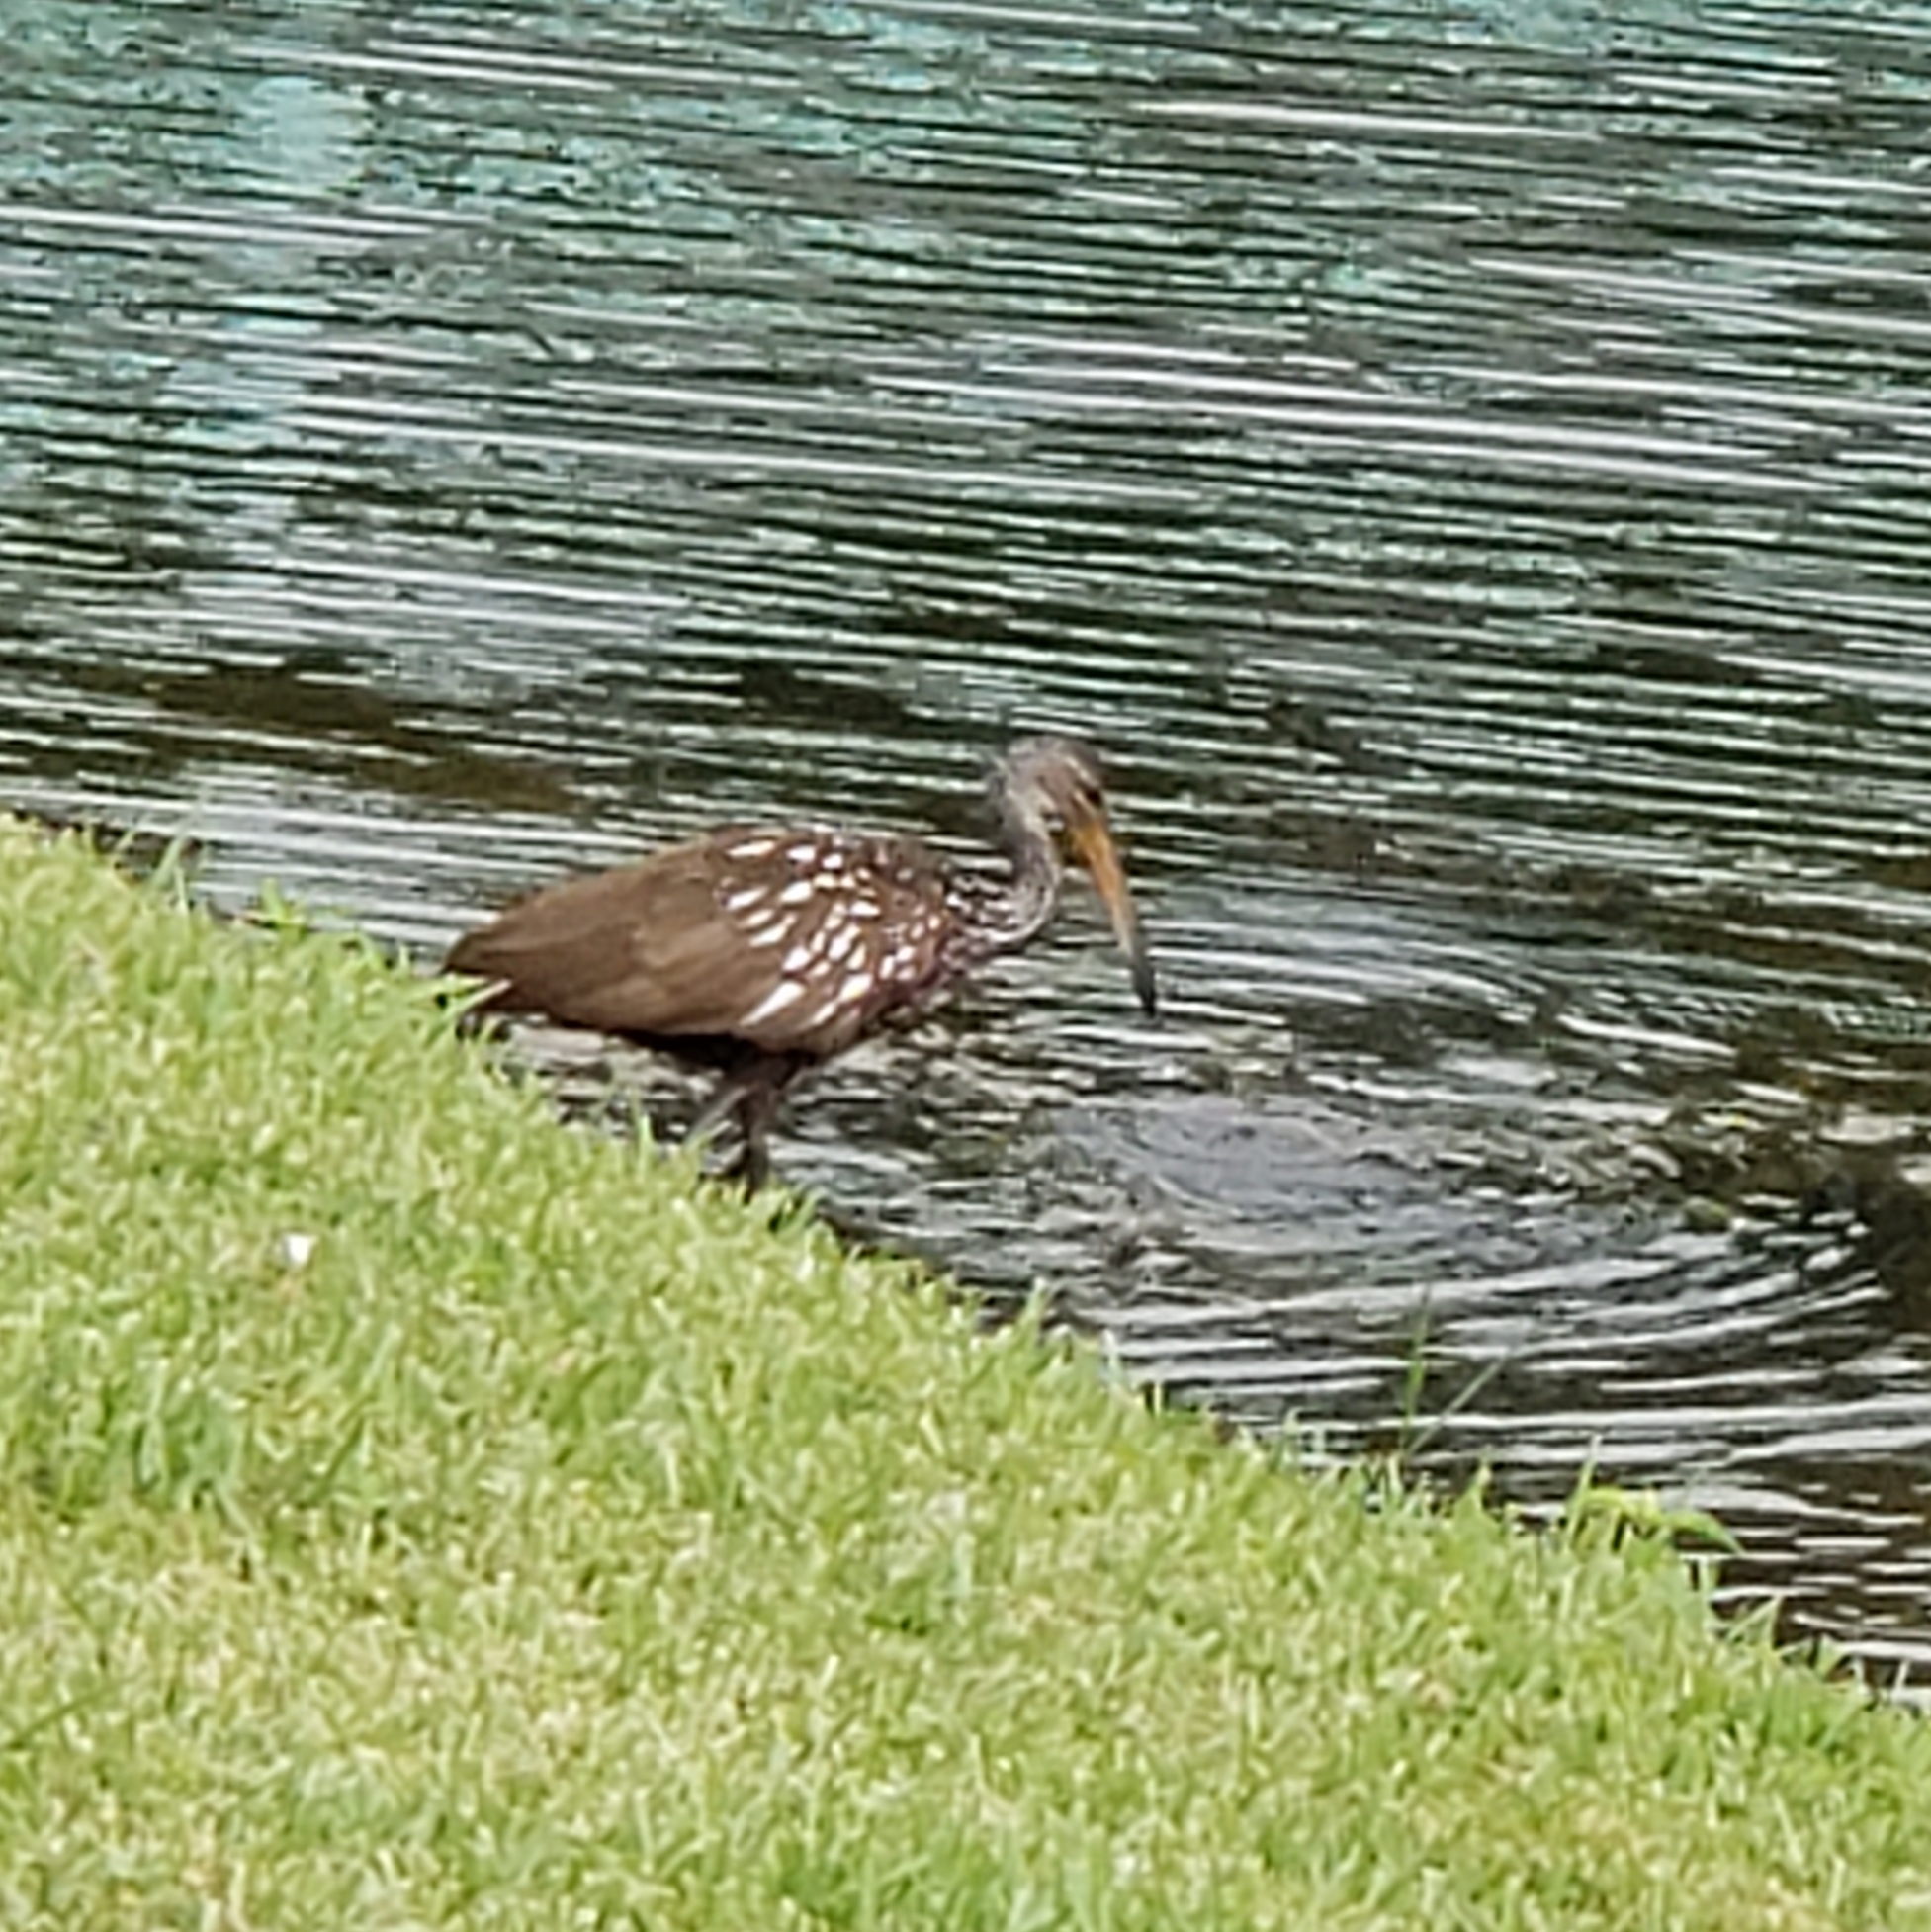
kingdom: Animalia
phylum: Chordata
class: Aves
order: Gruiformes
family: Aramidae
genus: Aramus
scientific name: Aramus guarauna
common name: Limpkin
